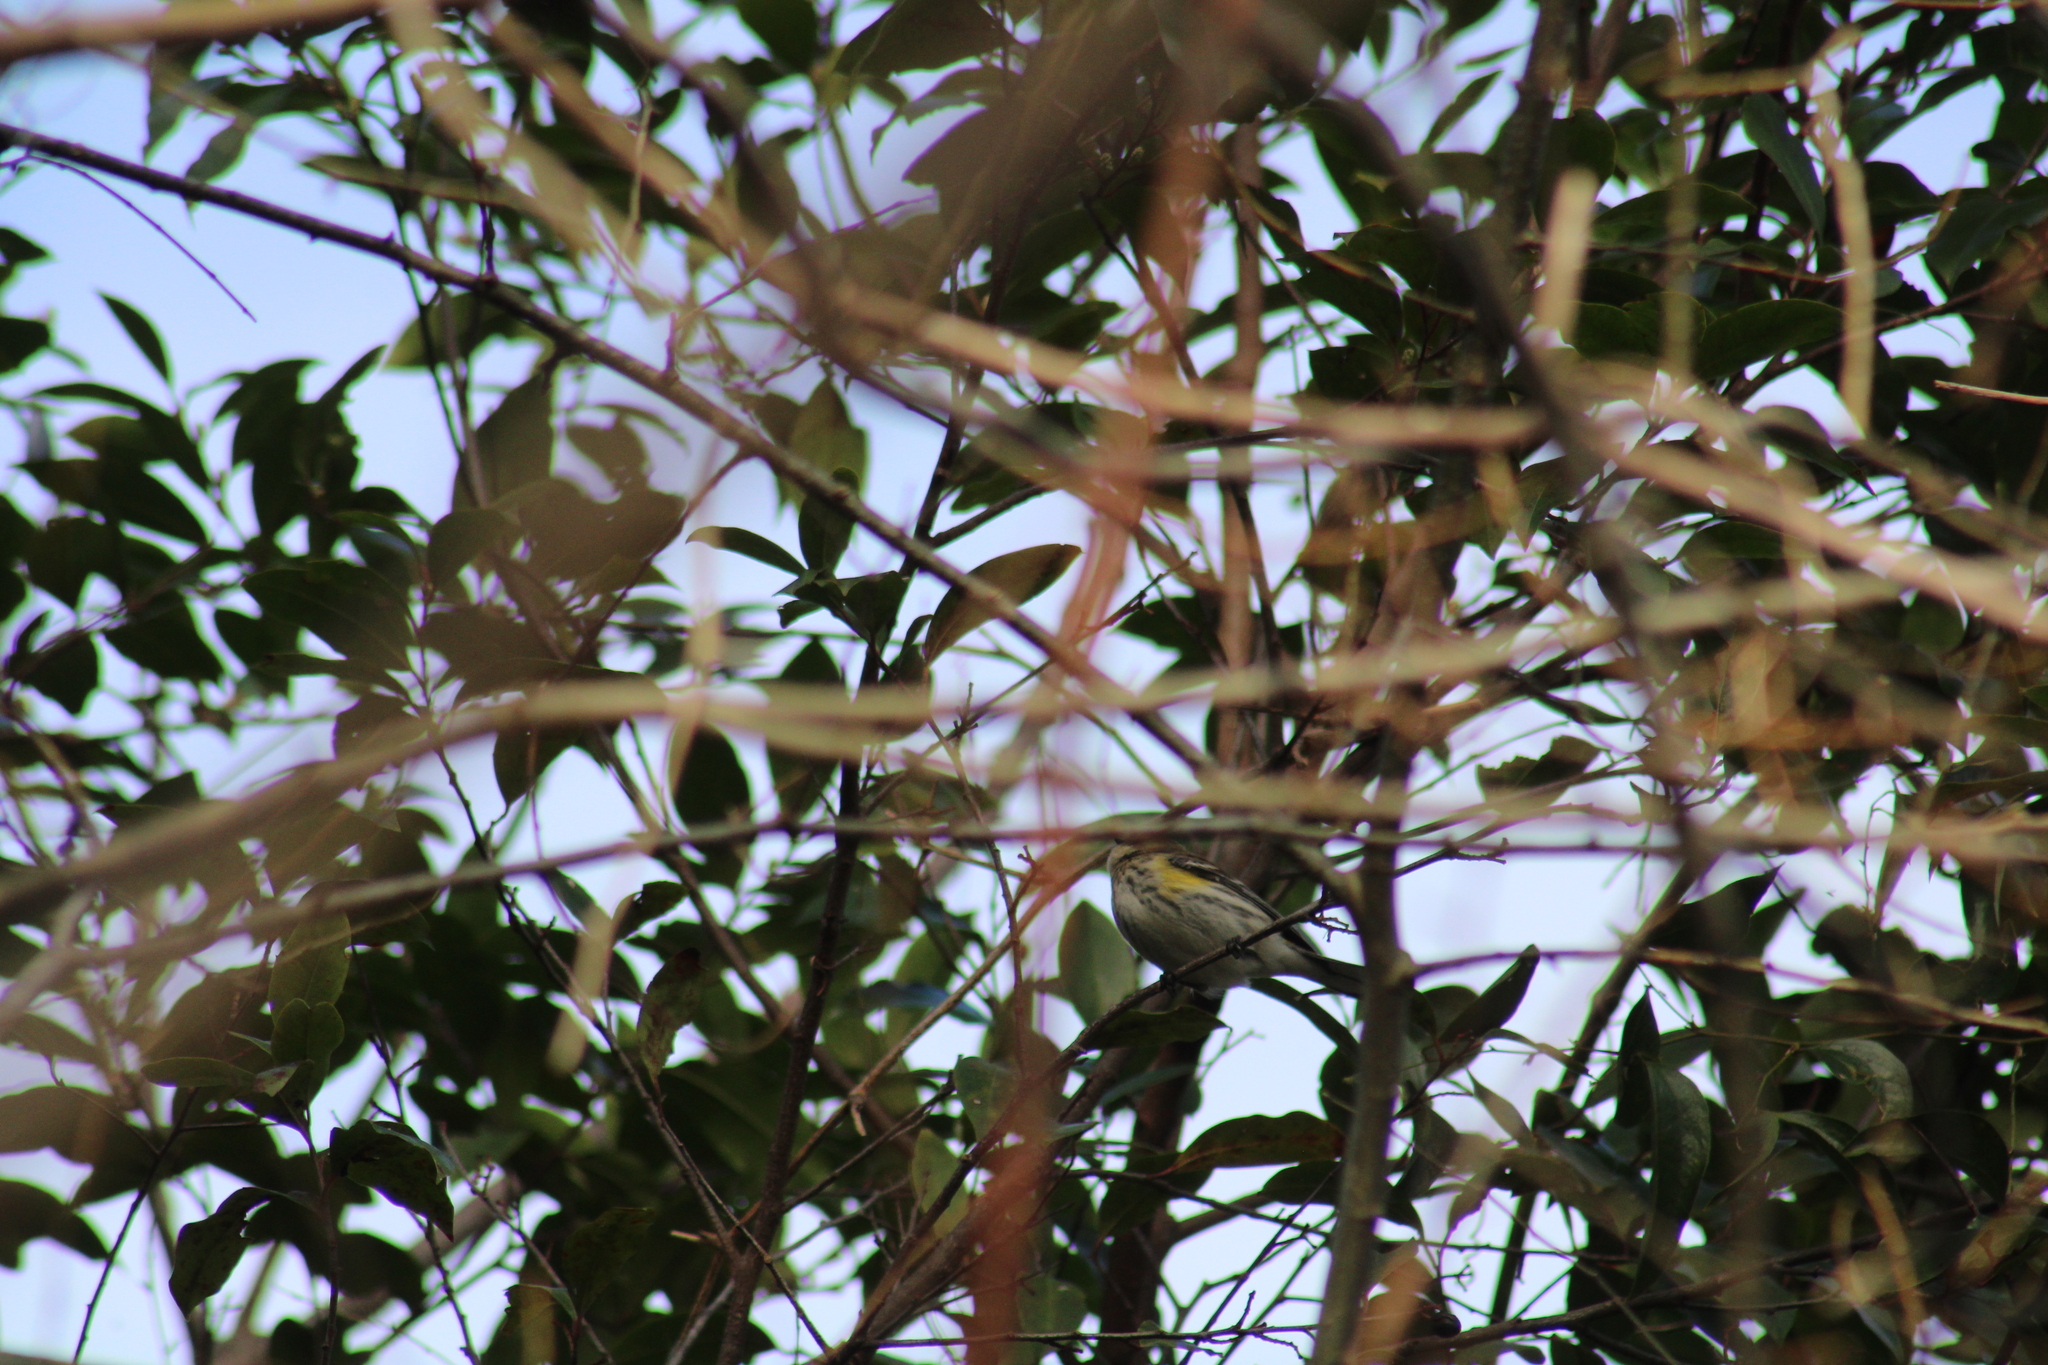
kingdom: Animalia
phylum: Chordata
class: Aves
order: Passeriformes
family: Parulidae
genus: Setophaga
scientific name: Setophaga coronata
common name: Myrtle warbler
